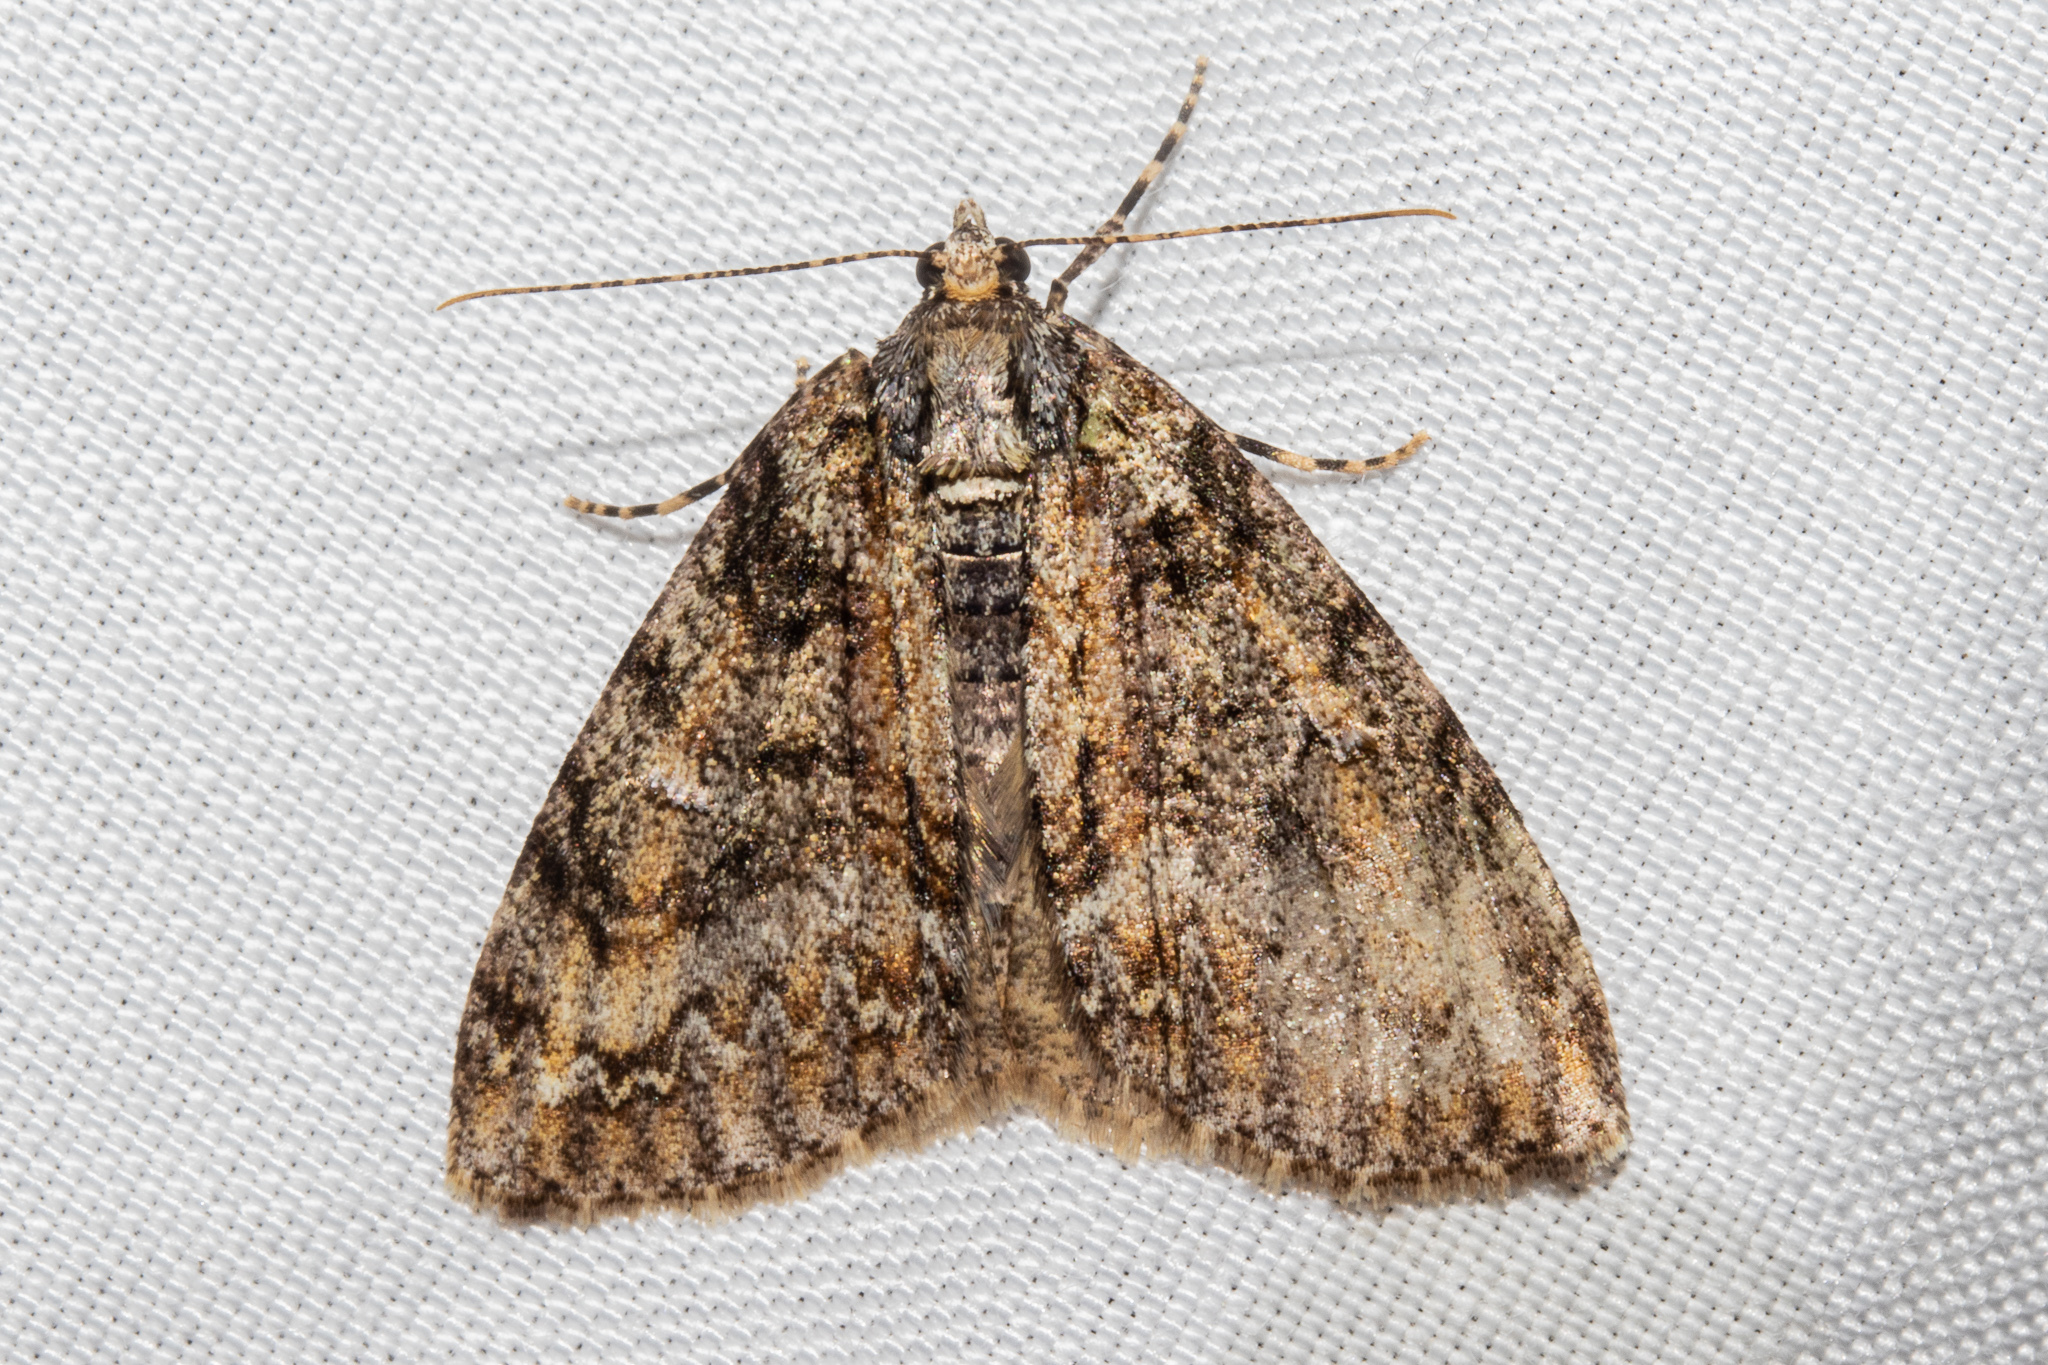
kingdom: Animalia
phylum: Arthropoda
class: Insecta
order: Lepidoptera
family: Geometridae
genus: Pseudocoremia
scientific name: Pseudocoremia suavis
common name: Common forest looper
